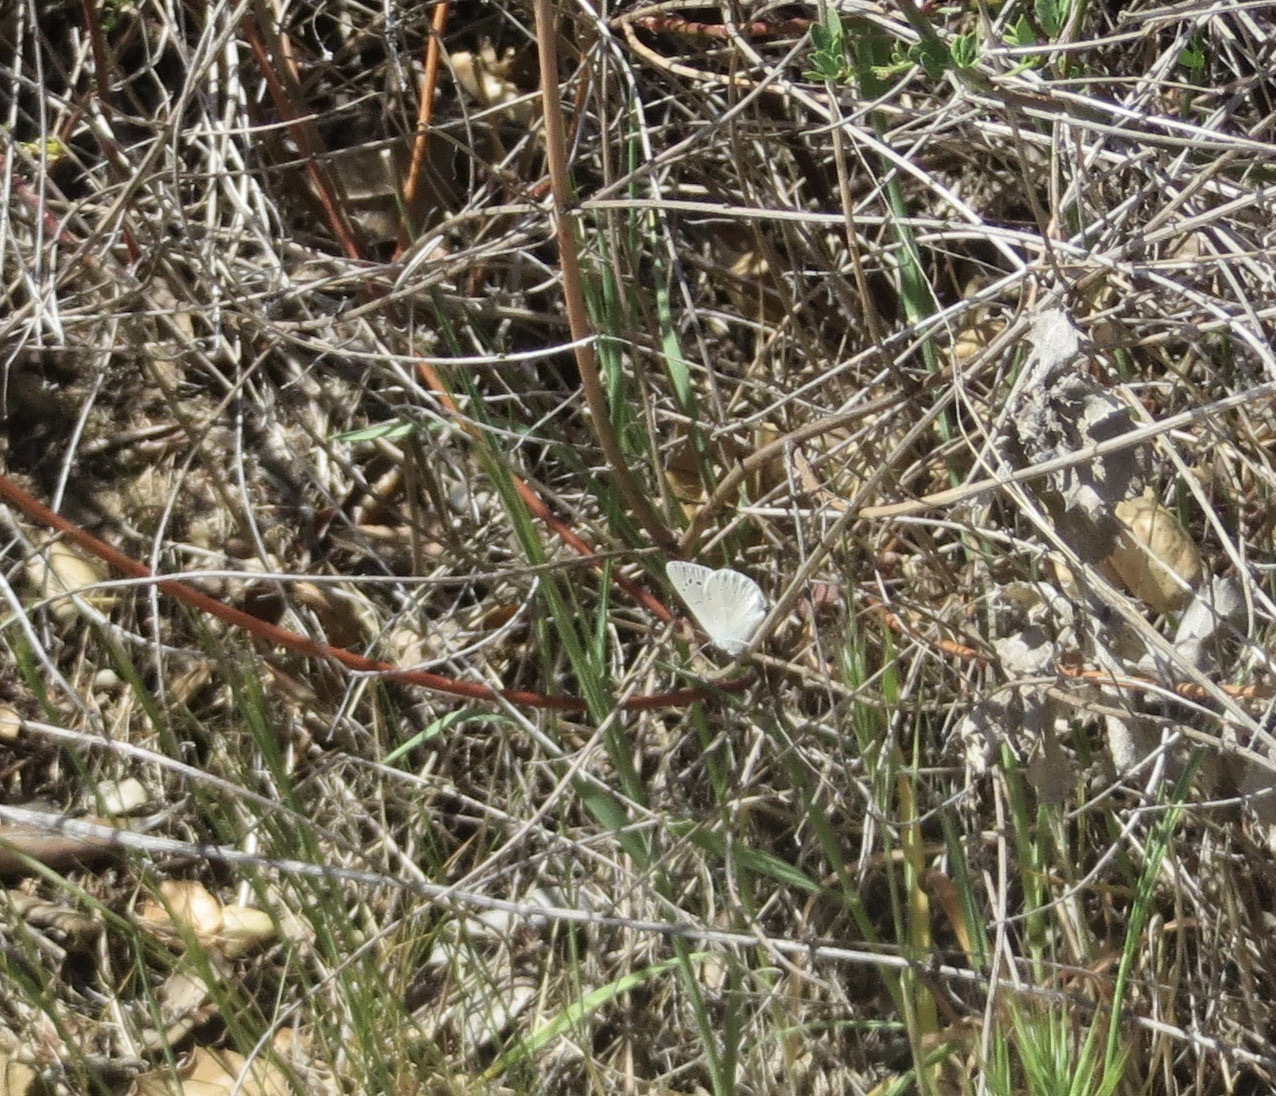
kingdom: Animalia
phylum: Arthropoda
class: Insecta
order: Lepidoptera
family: Lycaenidae
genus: Glaucopsyche
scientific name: Glaucopsyche lygdamus
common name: Silvery blue
